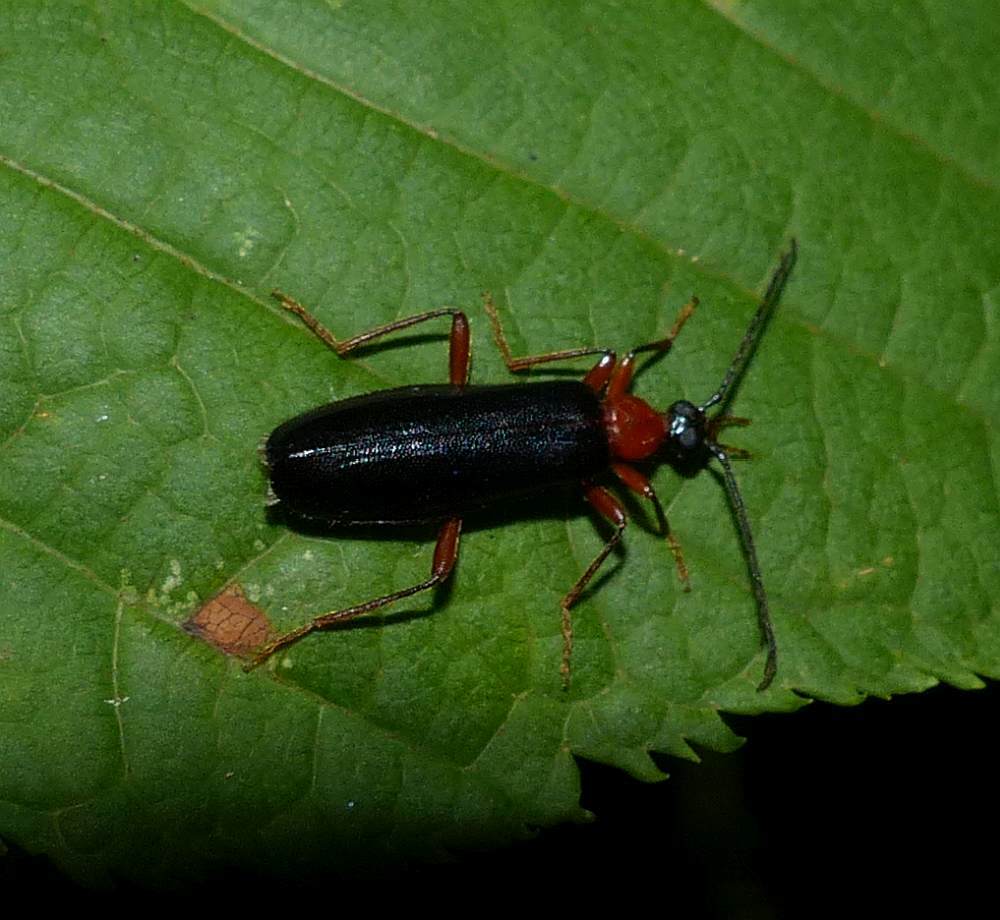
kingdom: Animalia
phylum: Arthropoda
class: Insecta
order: Coleoptera
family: Pyrochroidae
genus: Dendroides
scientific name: Dendroides canadensis
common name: Canada fire-colored beetle
